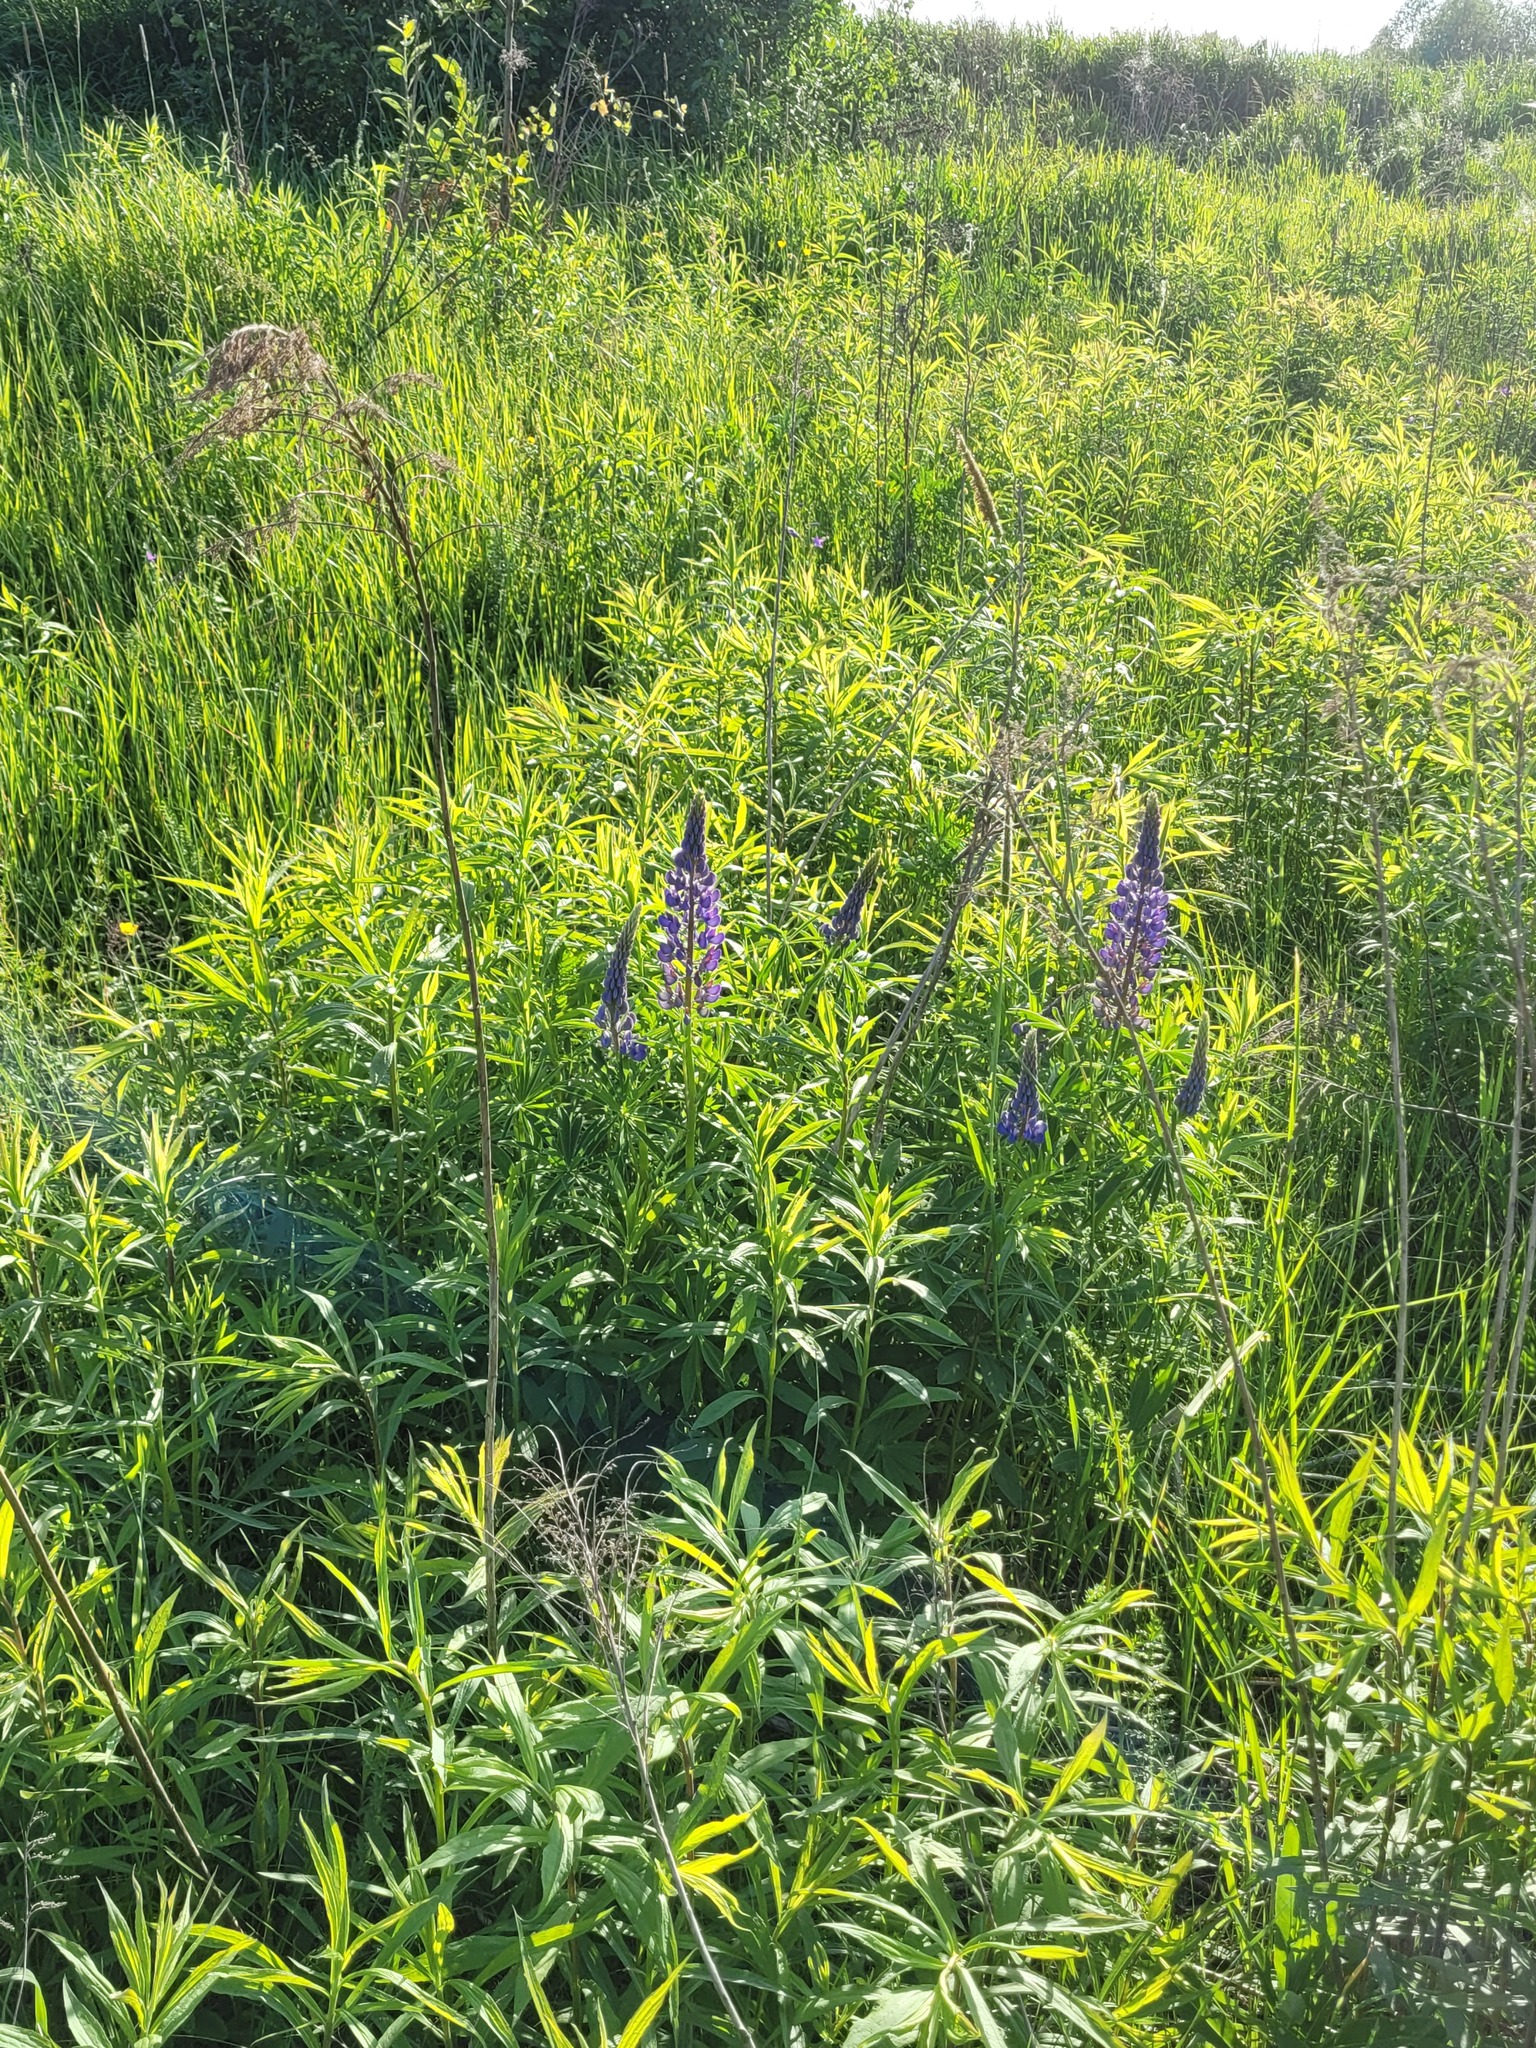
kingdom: Plantae
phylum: Tracheophyta
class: Magnoliopsida
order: Fabales
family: Fabaceae
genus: Lupinus
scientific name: Lupinus polyphyllus
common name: Garden lupin
